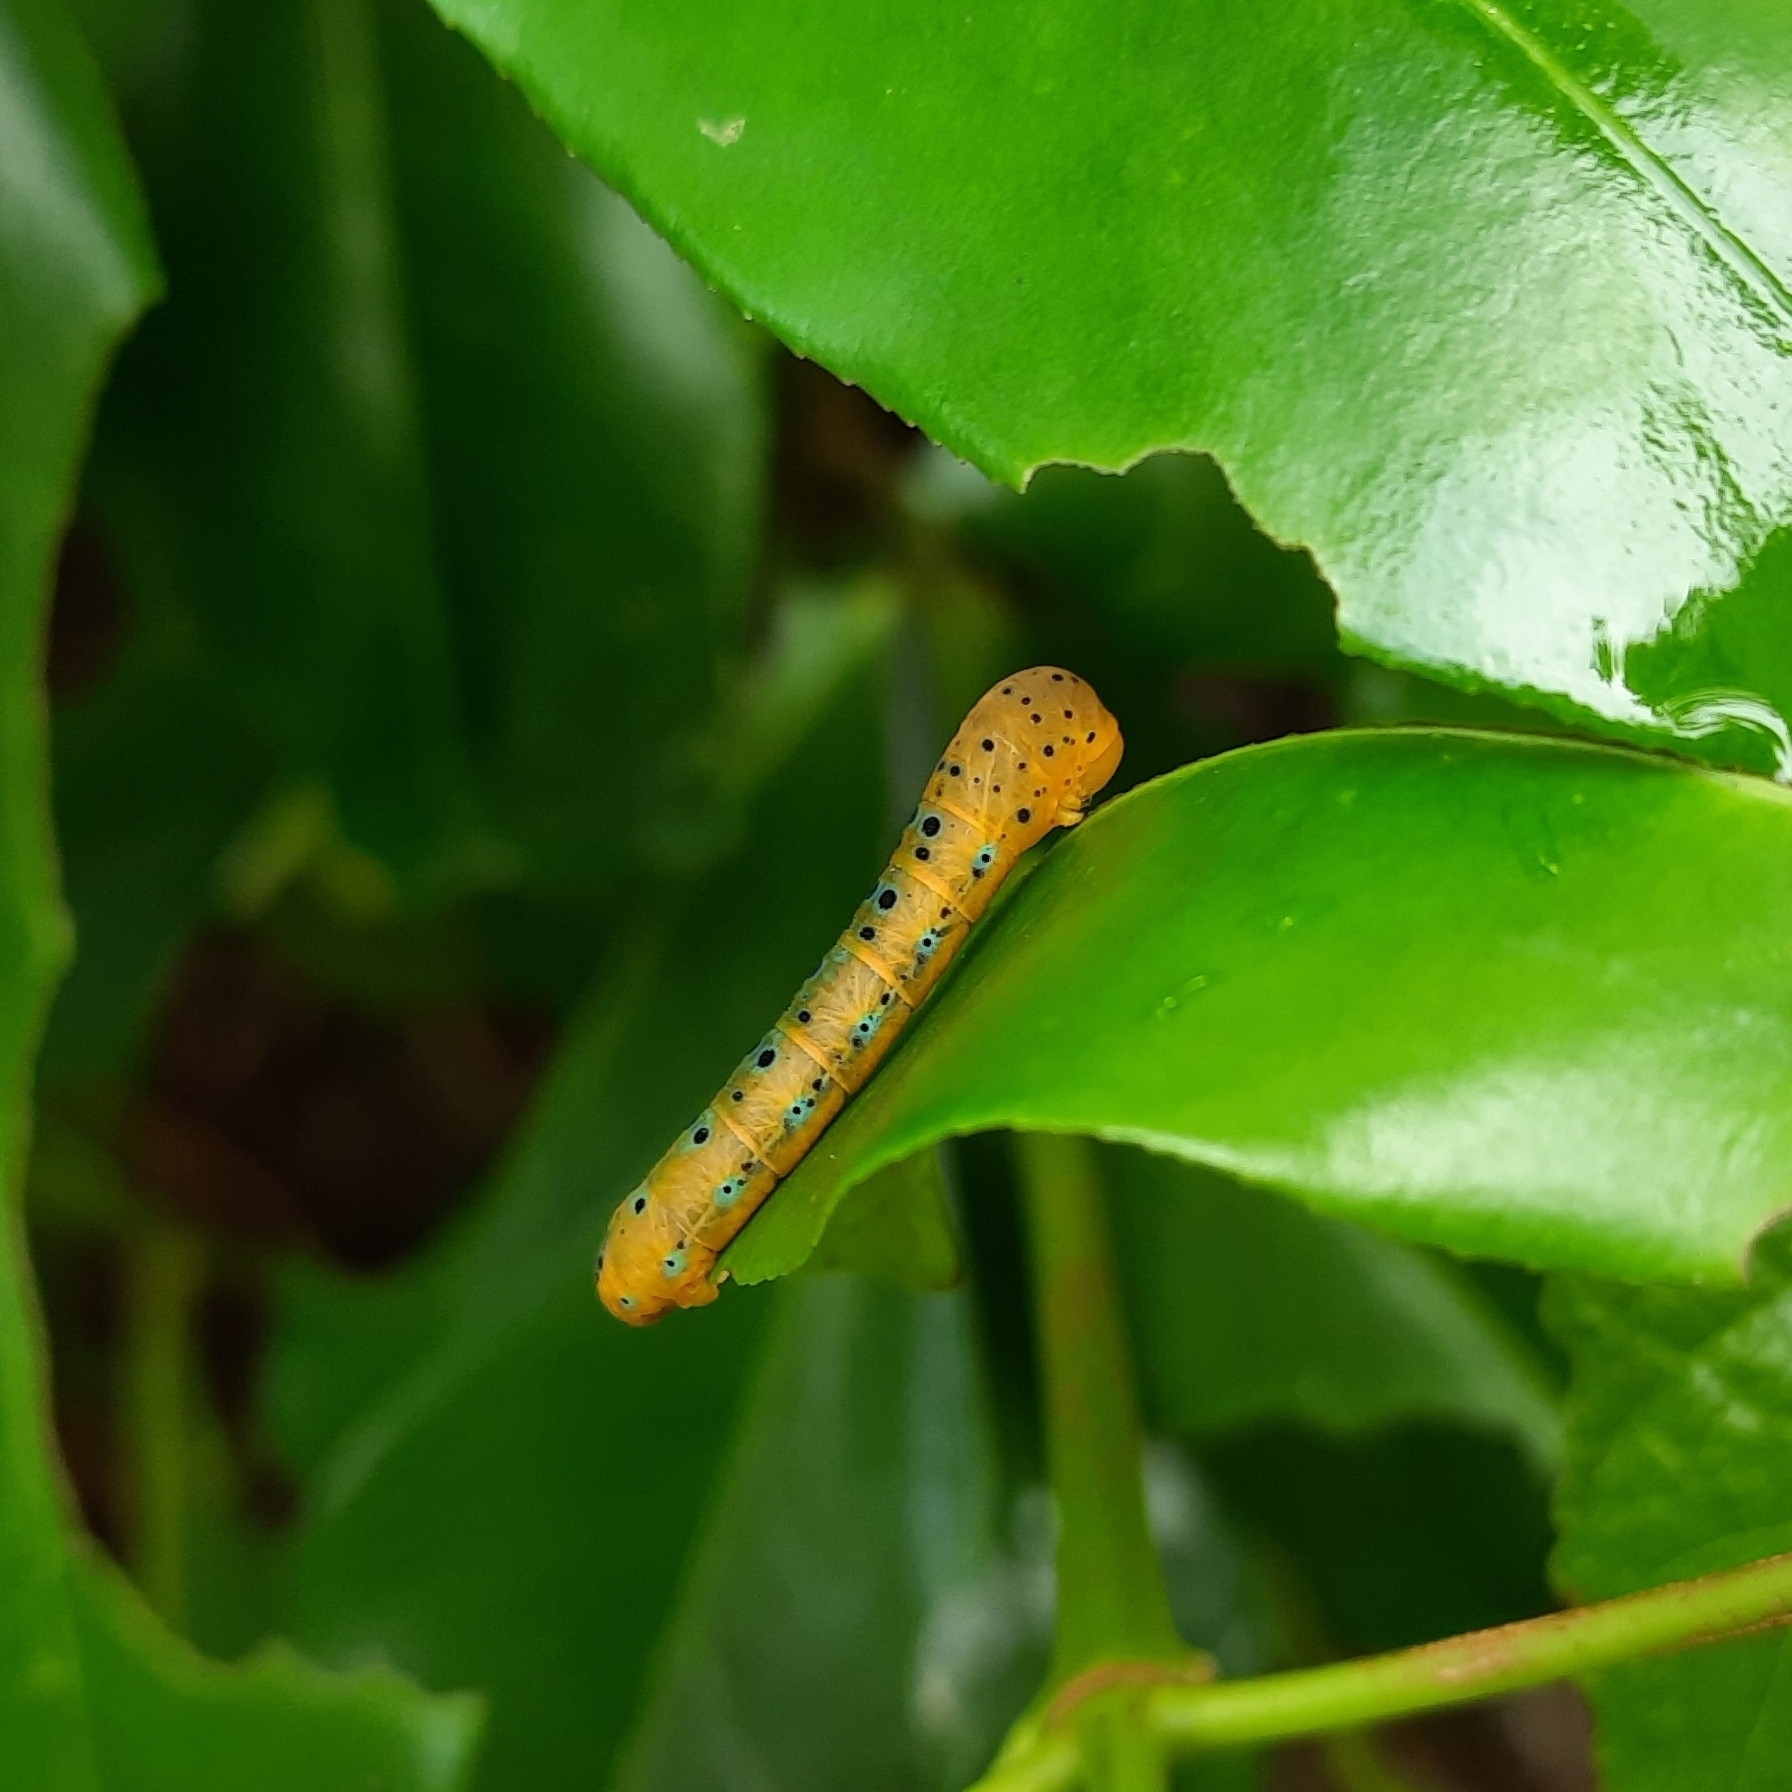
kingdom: Animalia
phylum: Arthropoda
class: Insecta
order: Lepidoptera
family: Geometridae
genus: Dysphania
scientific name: Dysphania percota
